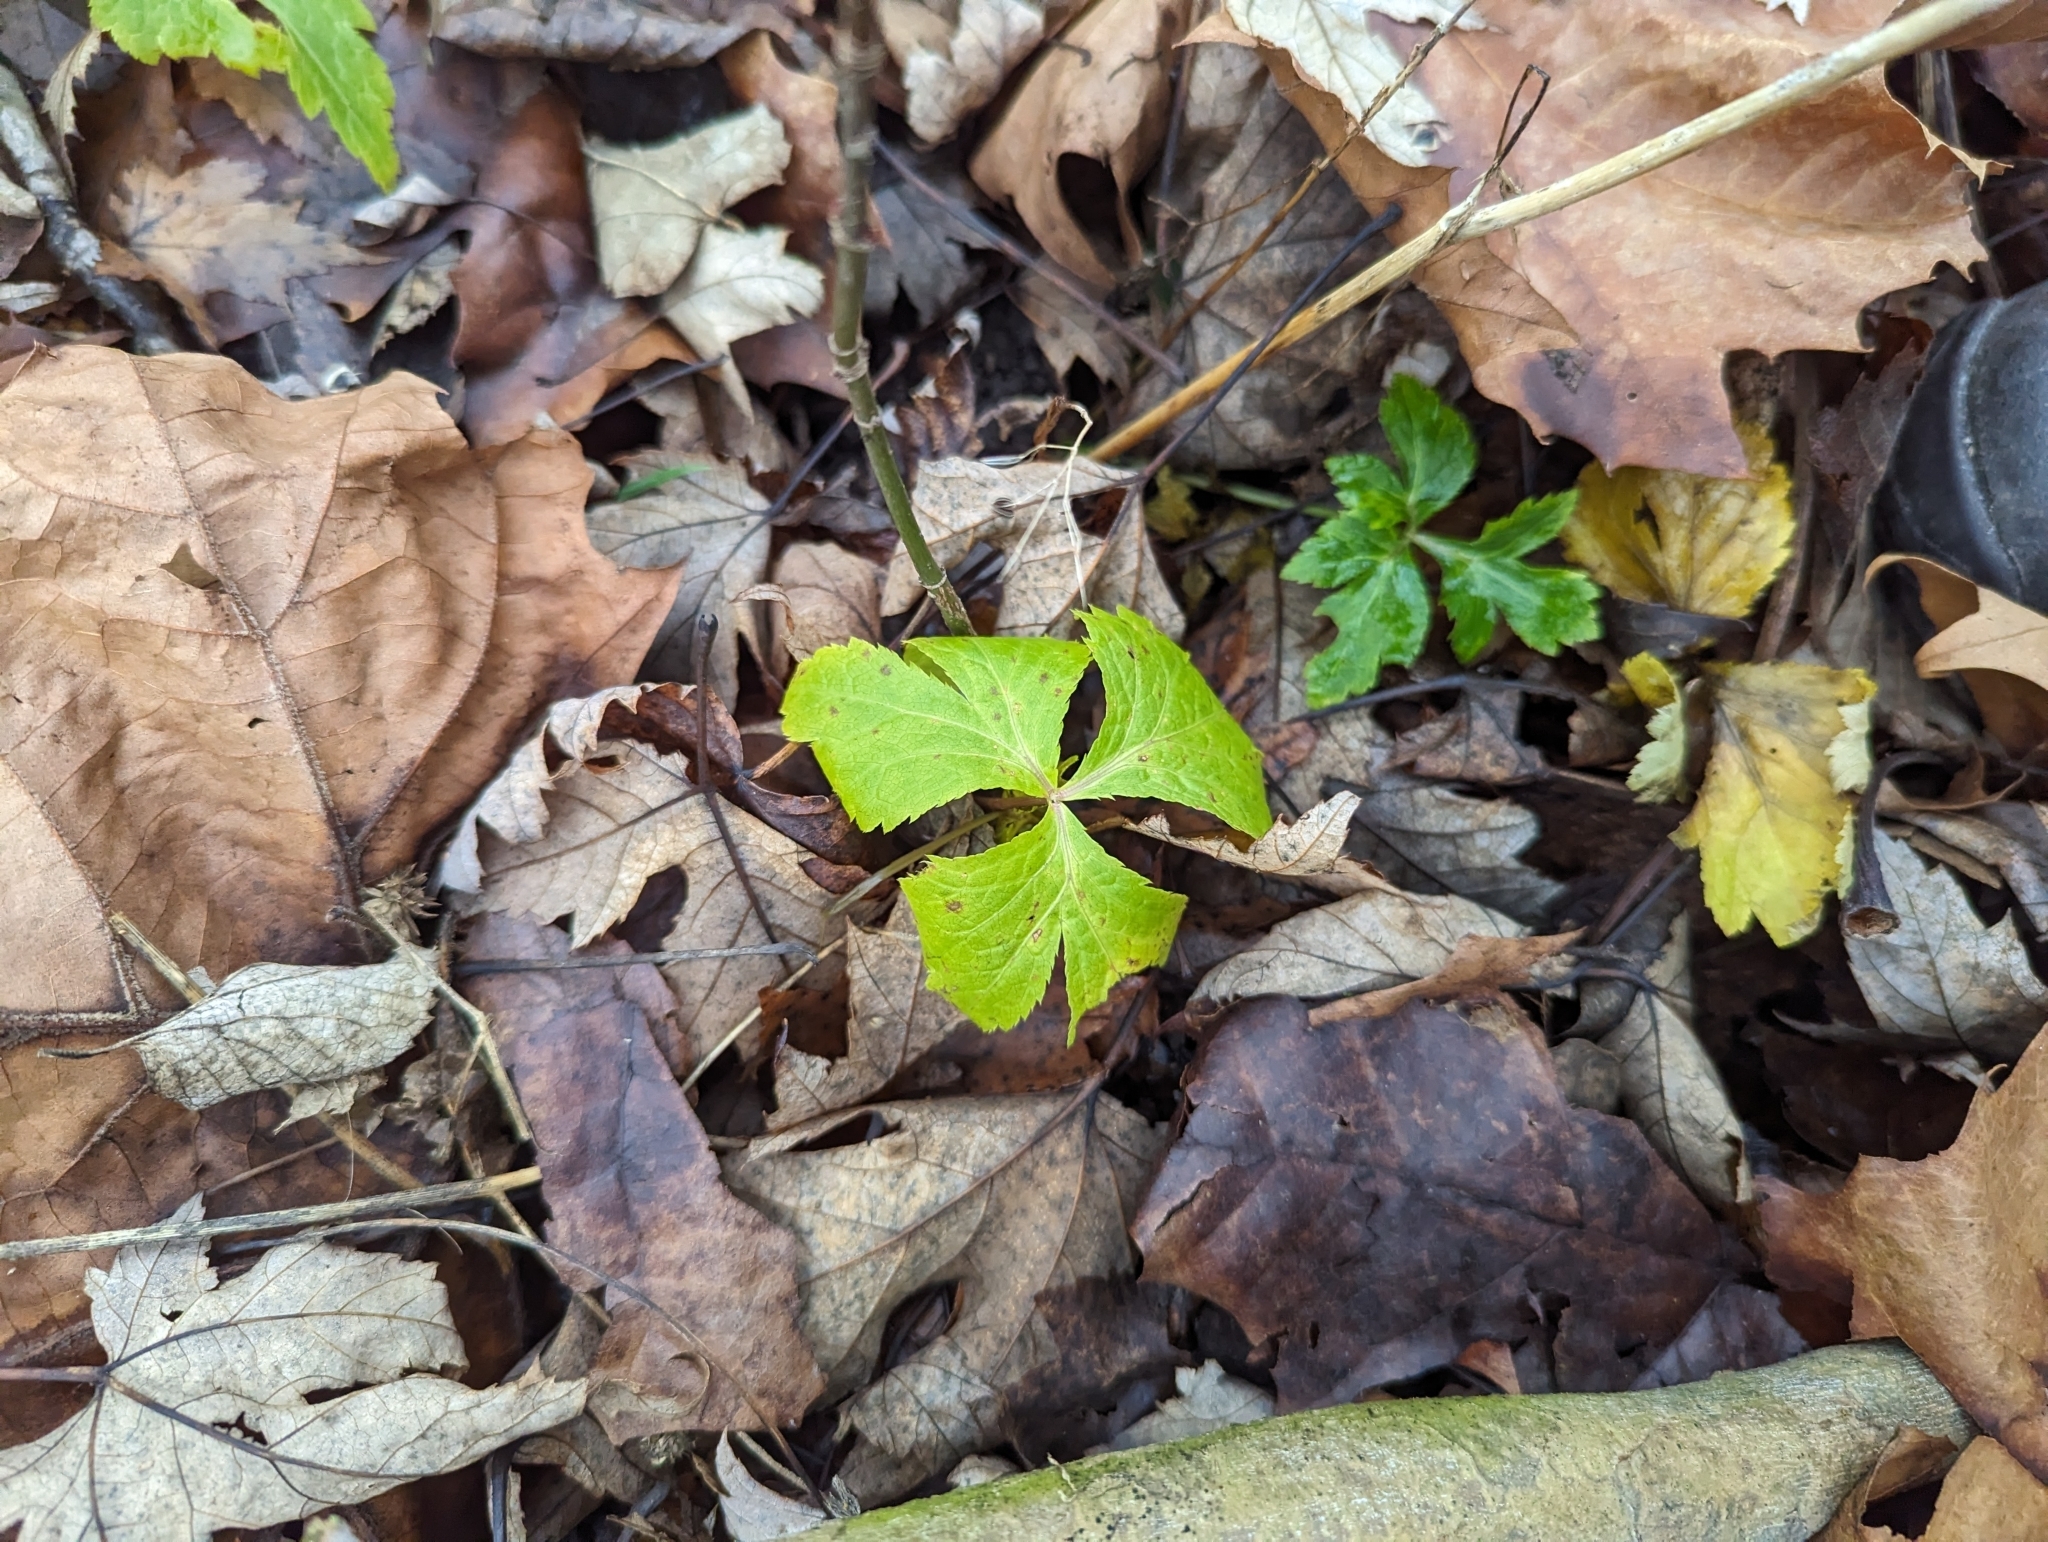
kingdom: Plantae
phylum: Tracheophyta
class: Magnoliopsida
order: Apiales
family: Apiaceae
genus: Cryptotaenia
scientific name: Cryptotaenia canadensis
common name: Honewort
